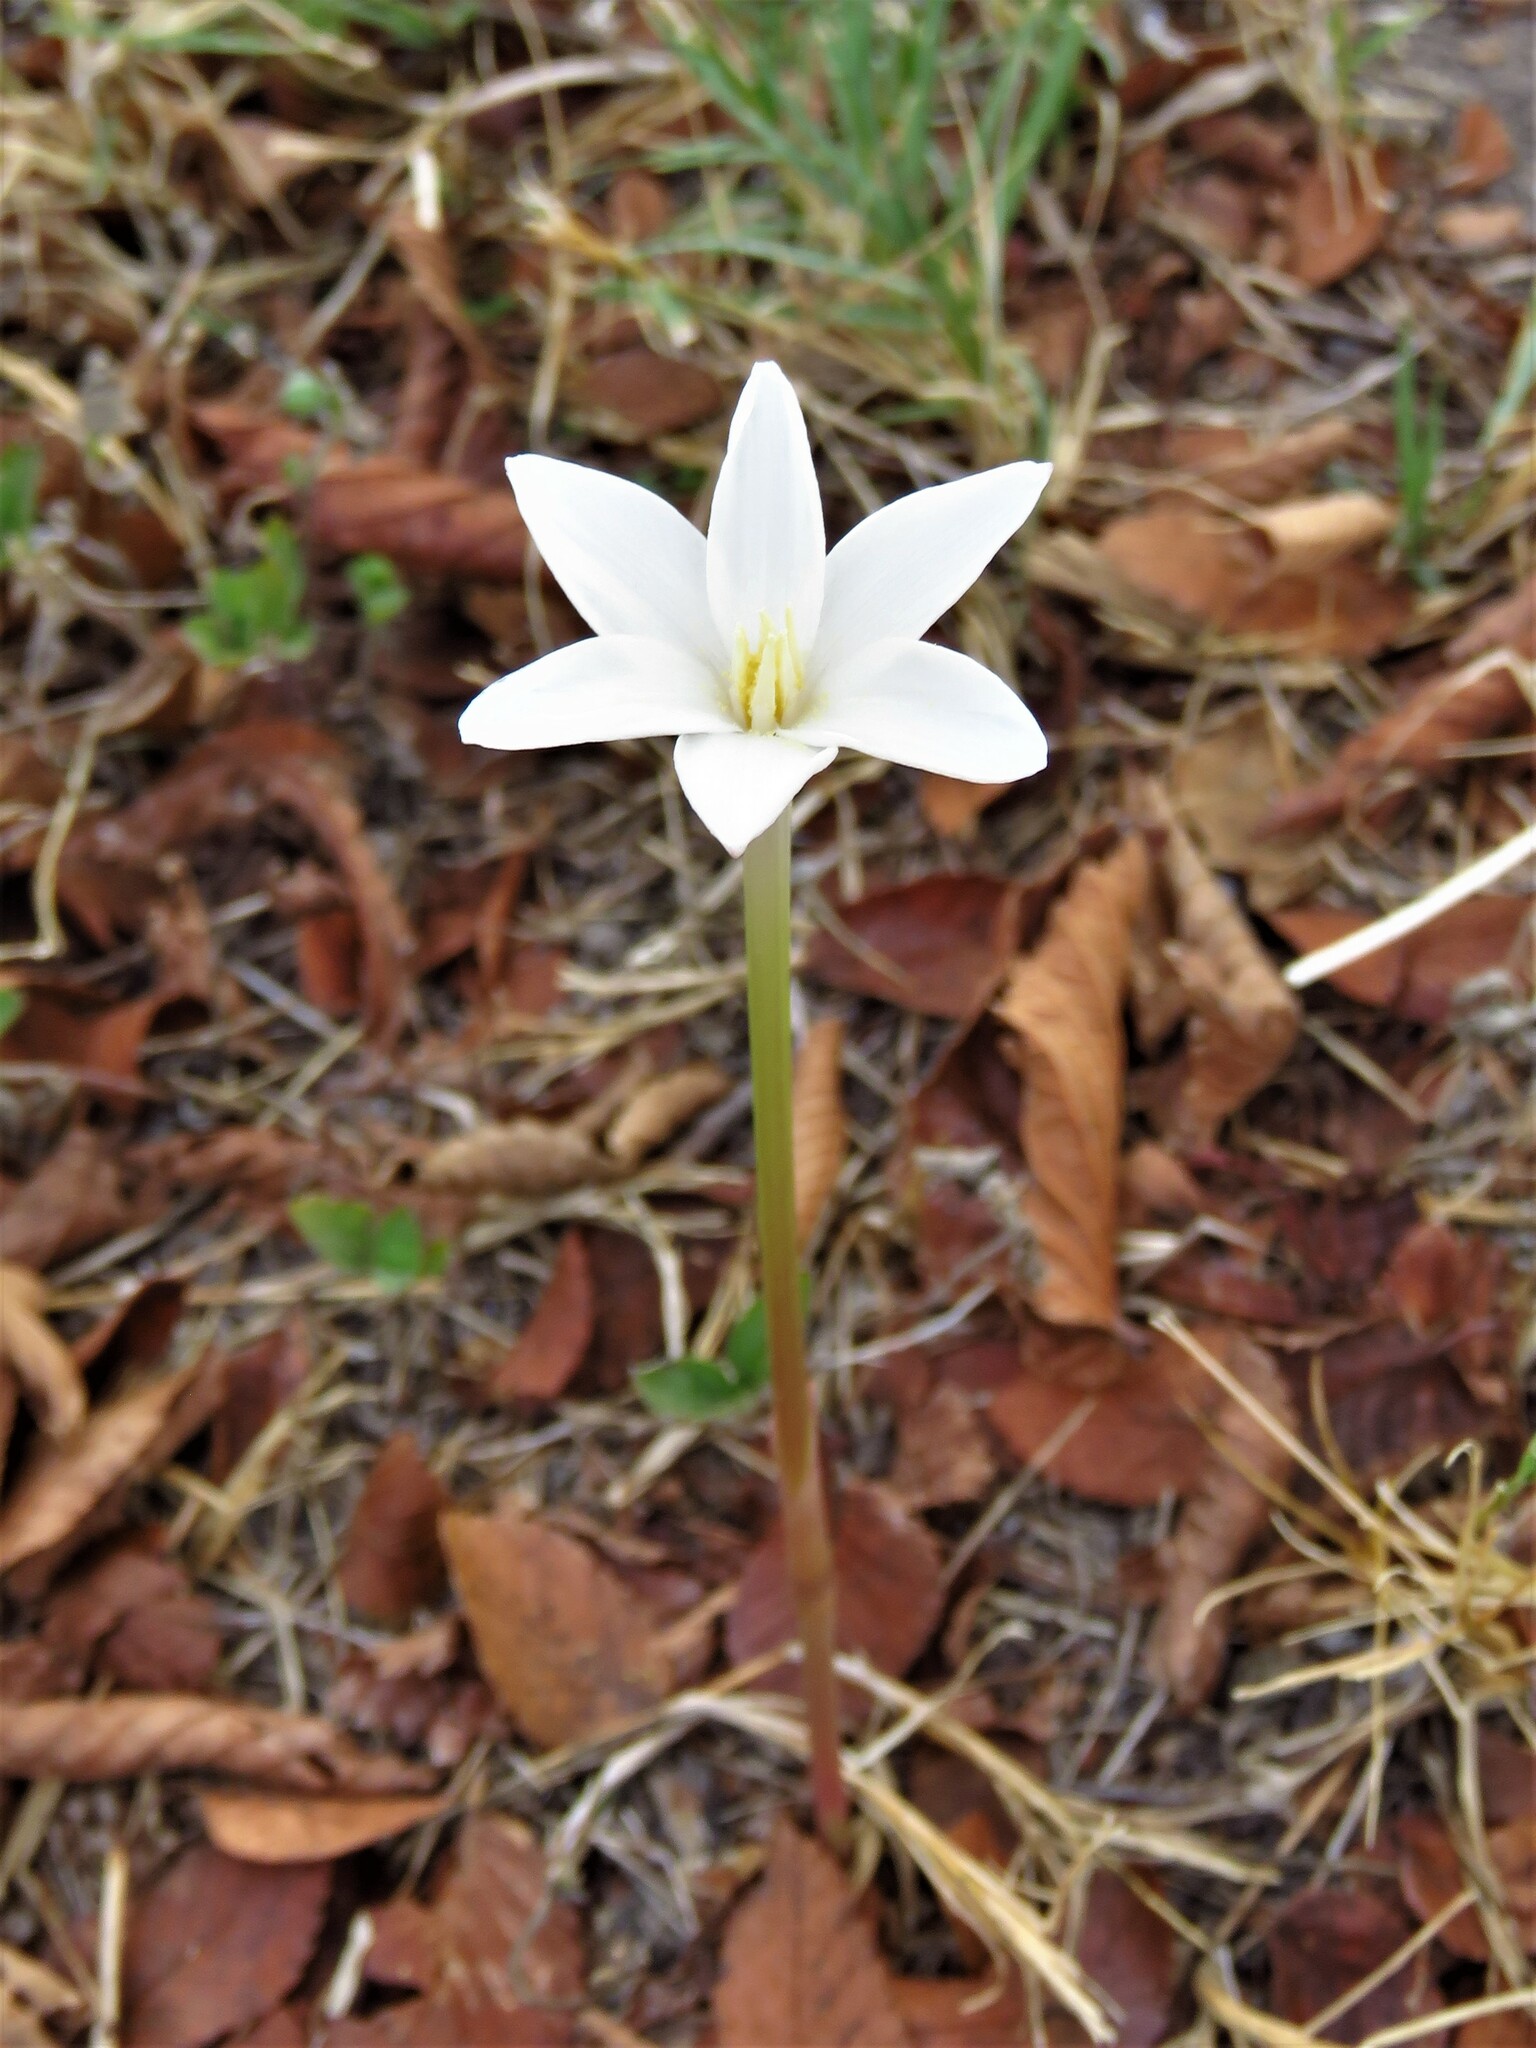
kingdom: Plantae
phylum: Tracheophyta
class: Liliopsida
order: Asparagales
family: Amaryllidaceae
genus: Zephyranthes
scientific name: Zephyranthes chlorosolen
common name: Evening rain-lily
